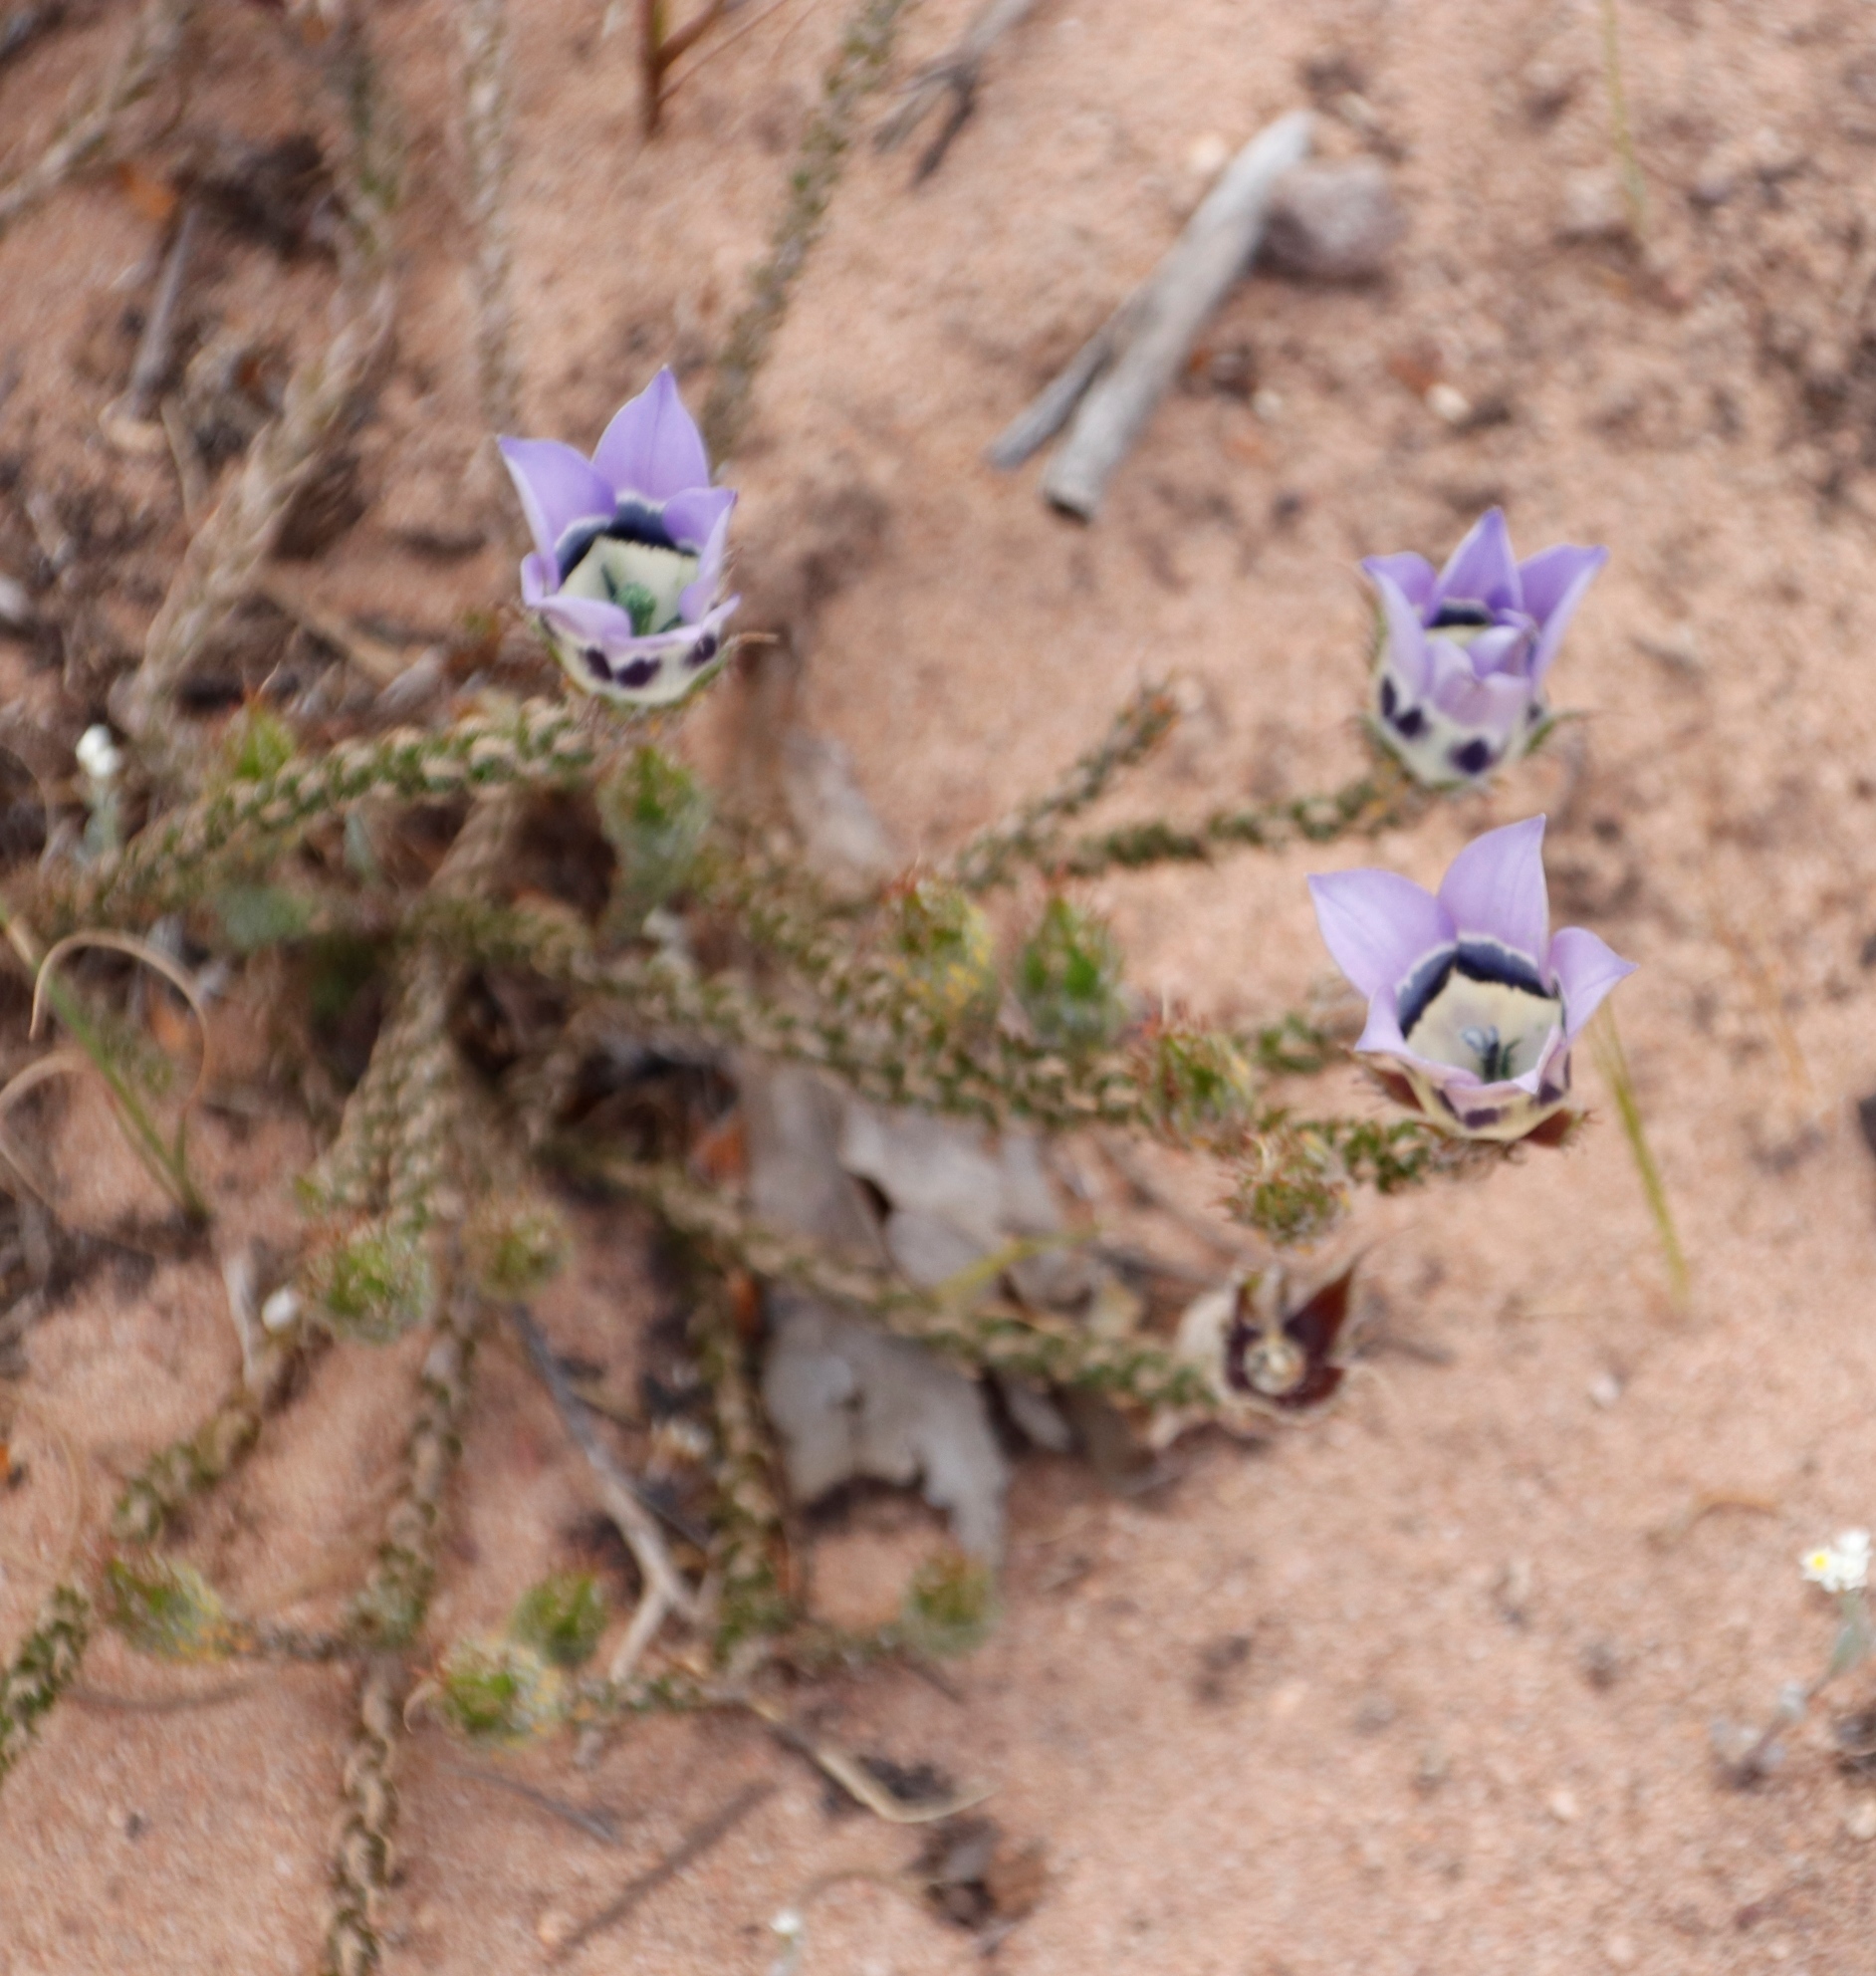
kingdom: Plantae
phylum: Tracheophyta
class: Magnoliopsida
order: Asterales
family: Campanulaceae
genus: Roella
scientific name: Roella ciliata
